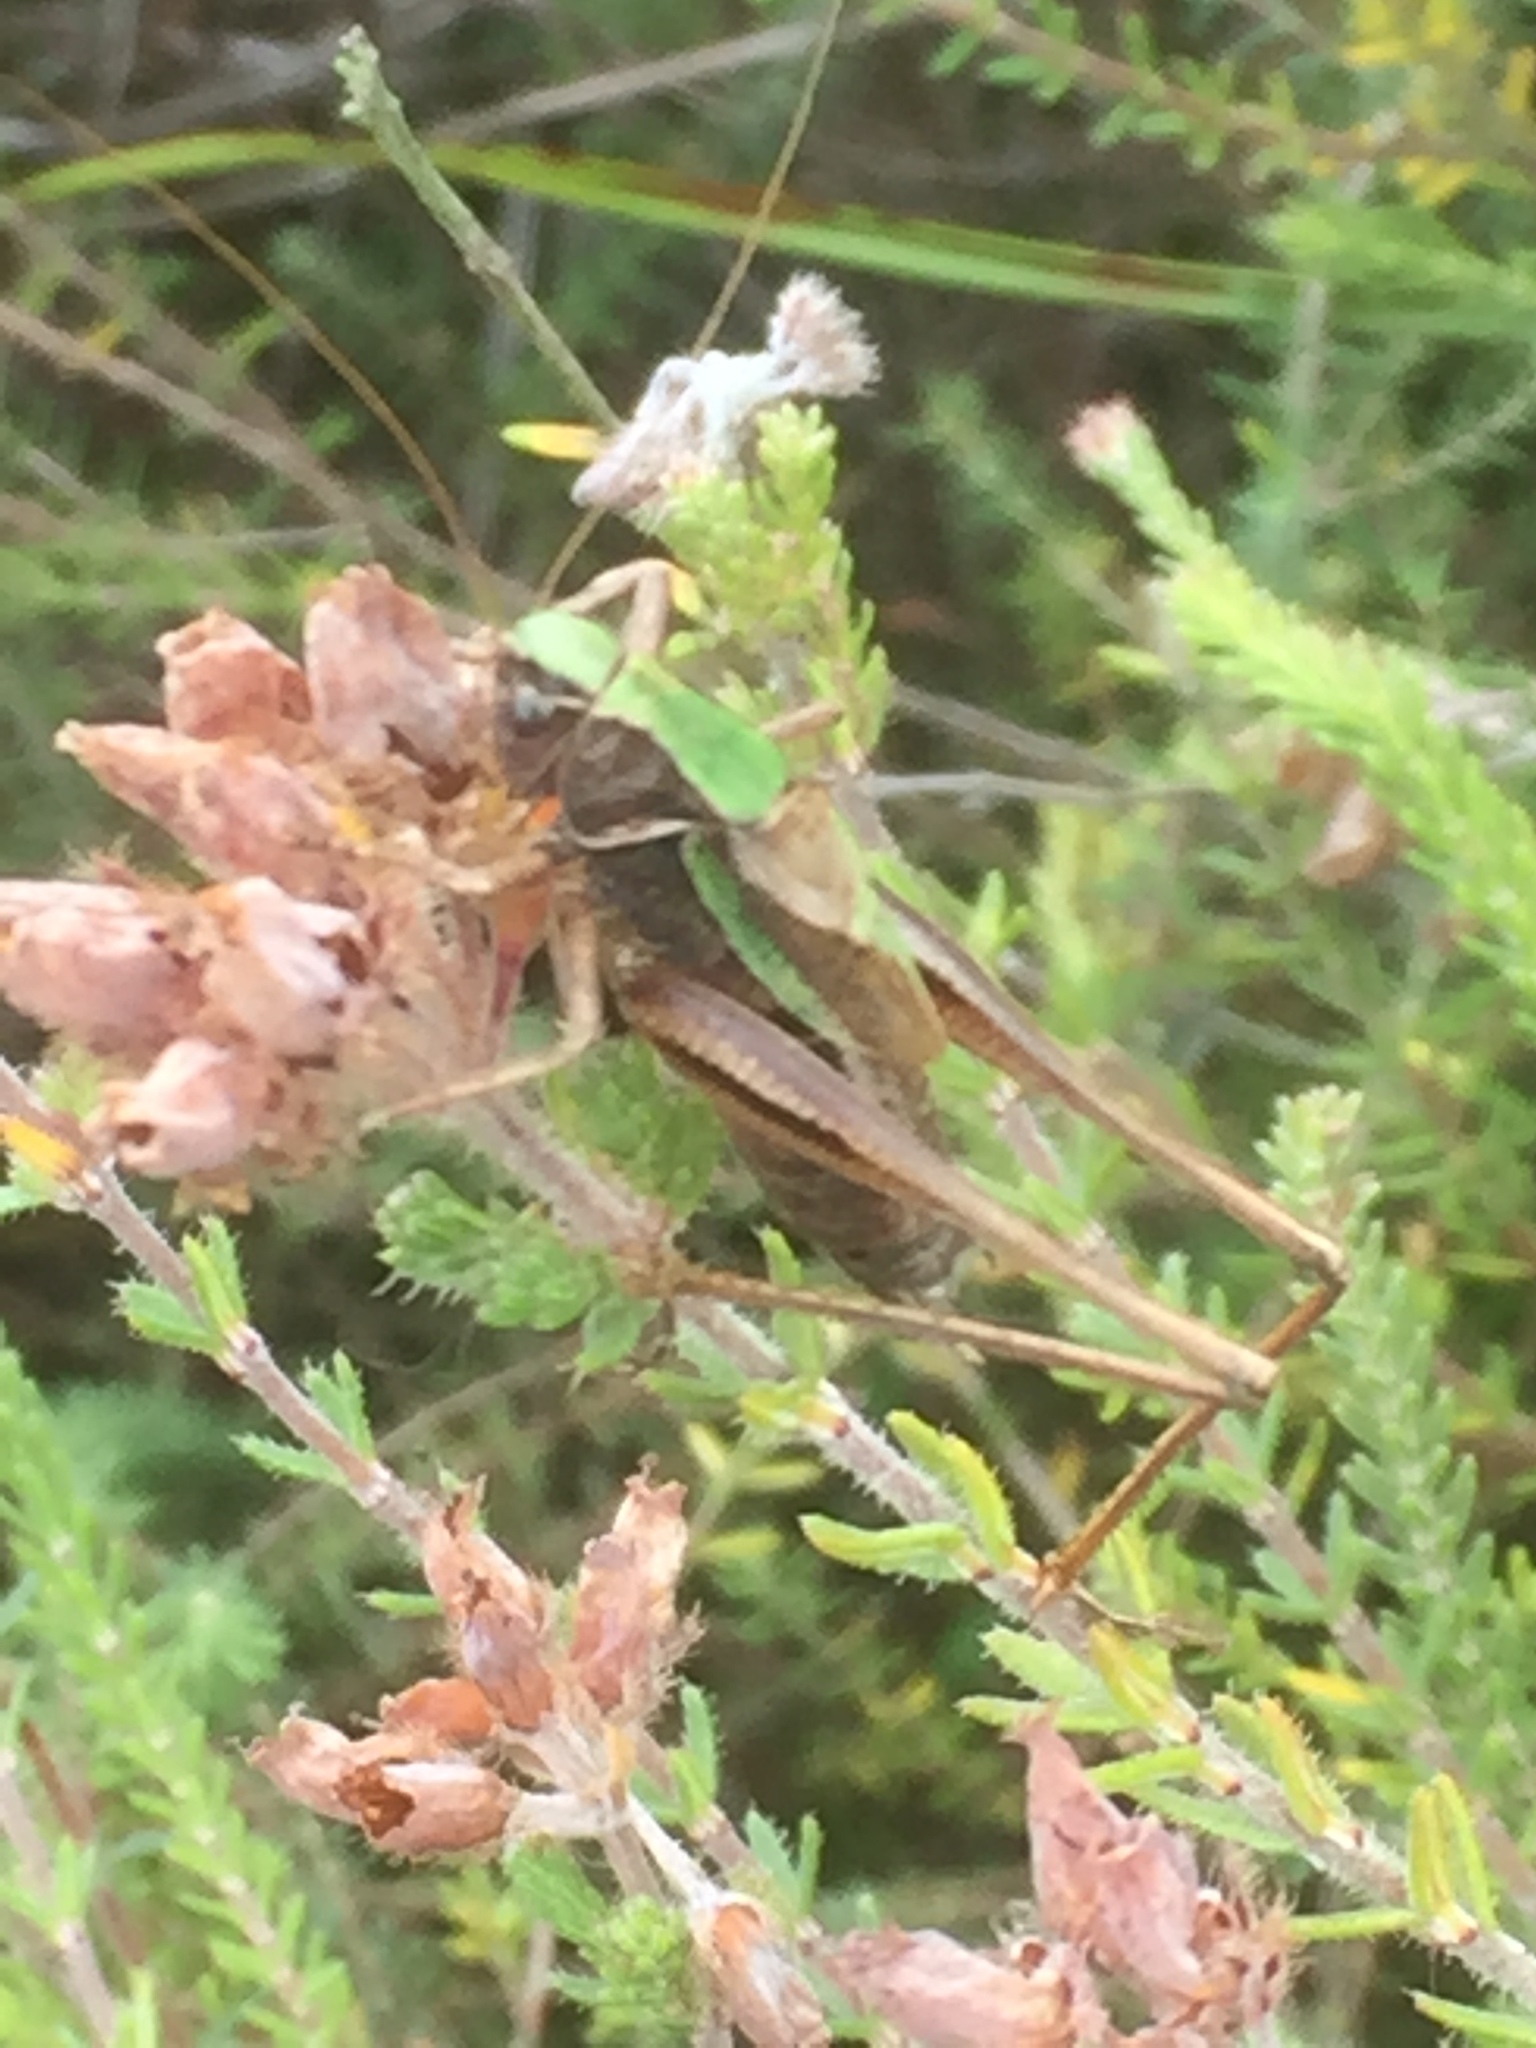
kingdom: Animalia
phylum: Arthropoda
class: Insecta
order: Orthoptera
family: Tettigoniidae
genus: Metrioptera
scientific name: Metrioptera brachyptera
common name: Bog bush-cricket
